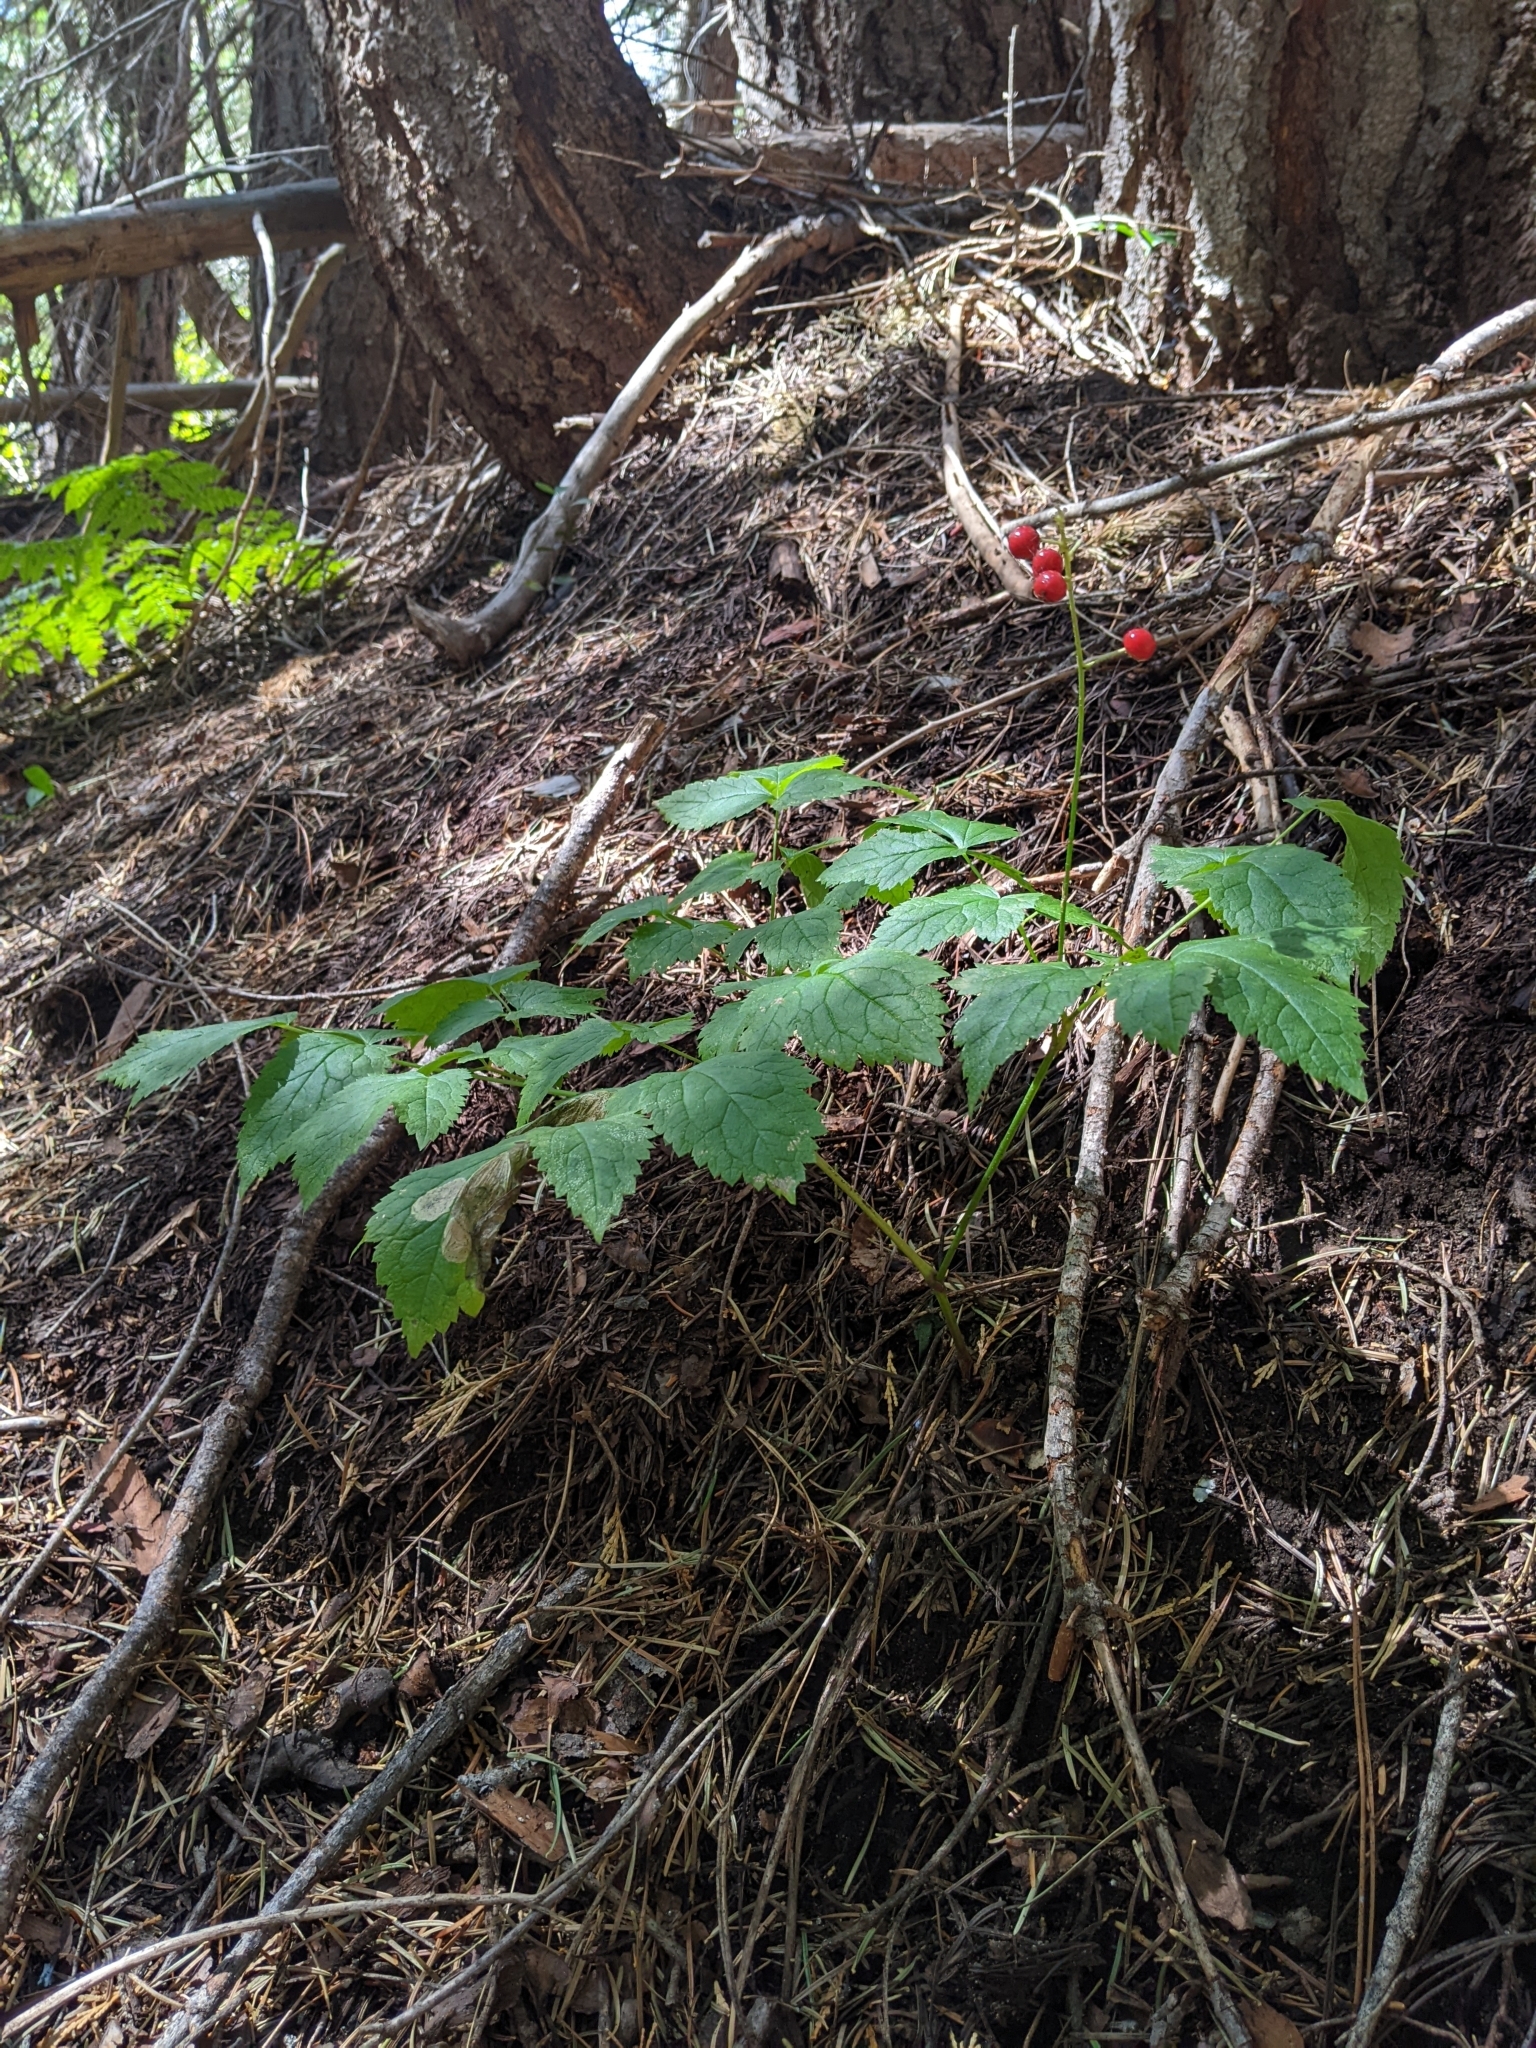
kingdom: Plantae
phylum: Tracheophyta
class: Magnoliopsida
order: Ranunculales
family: Ranunculaceae
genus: Actaea
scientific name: Actaea rubra
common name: Red baneberry
